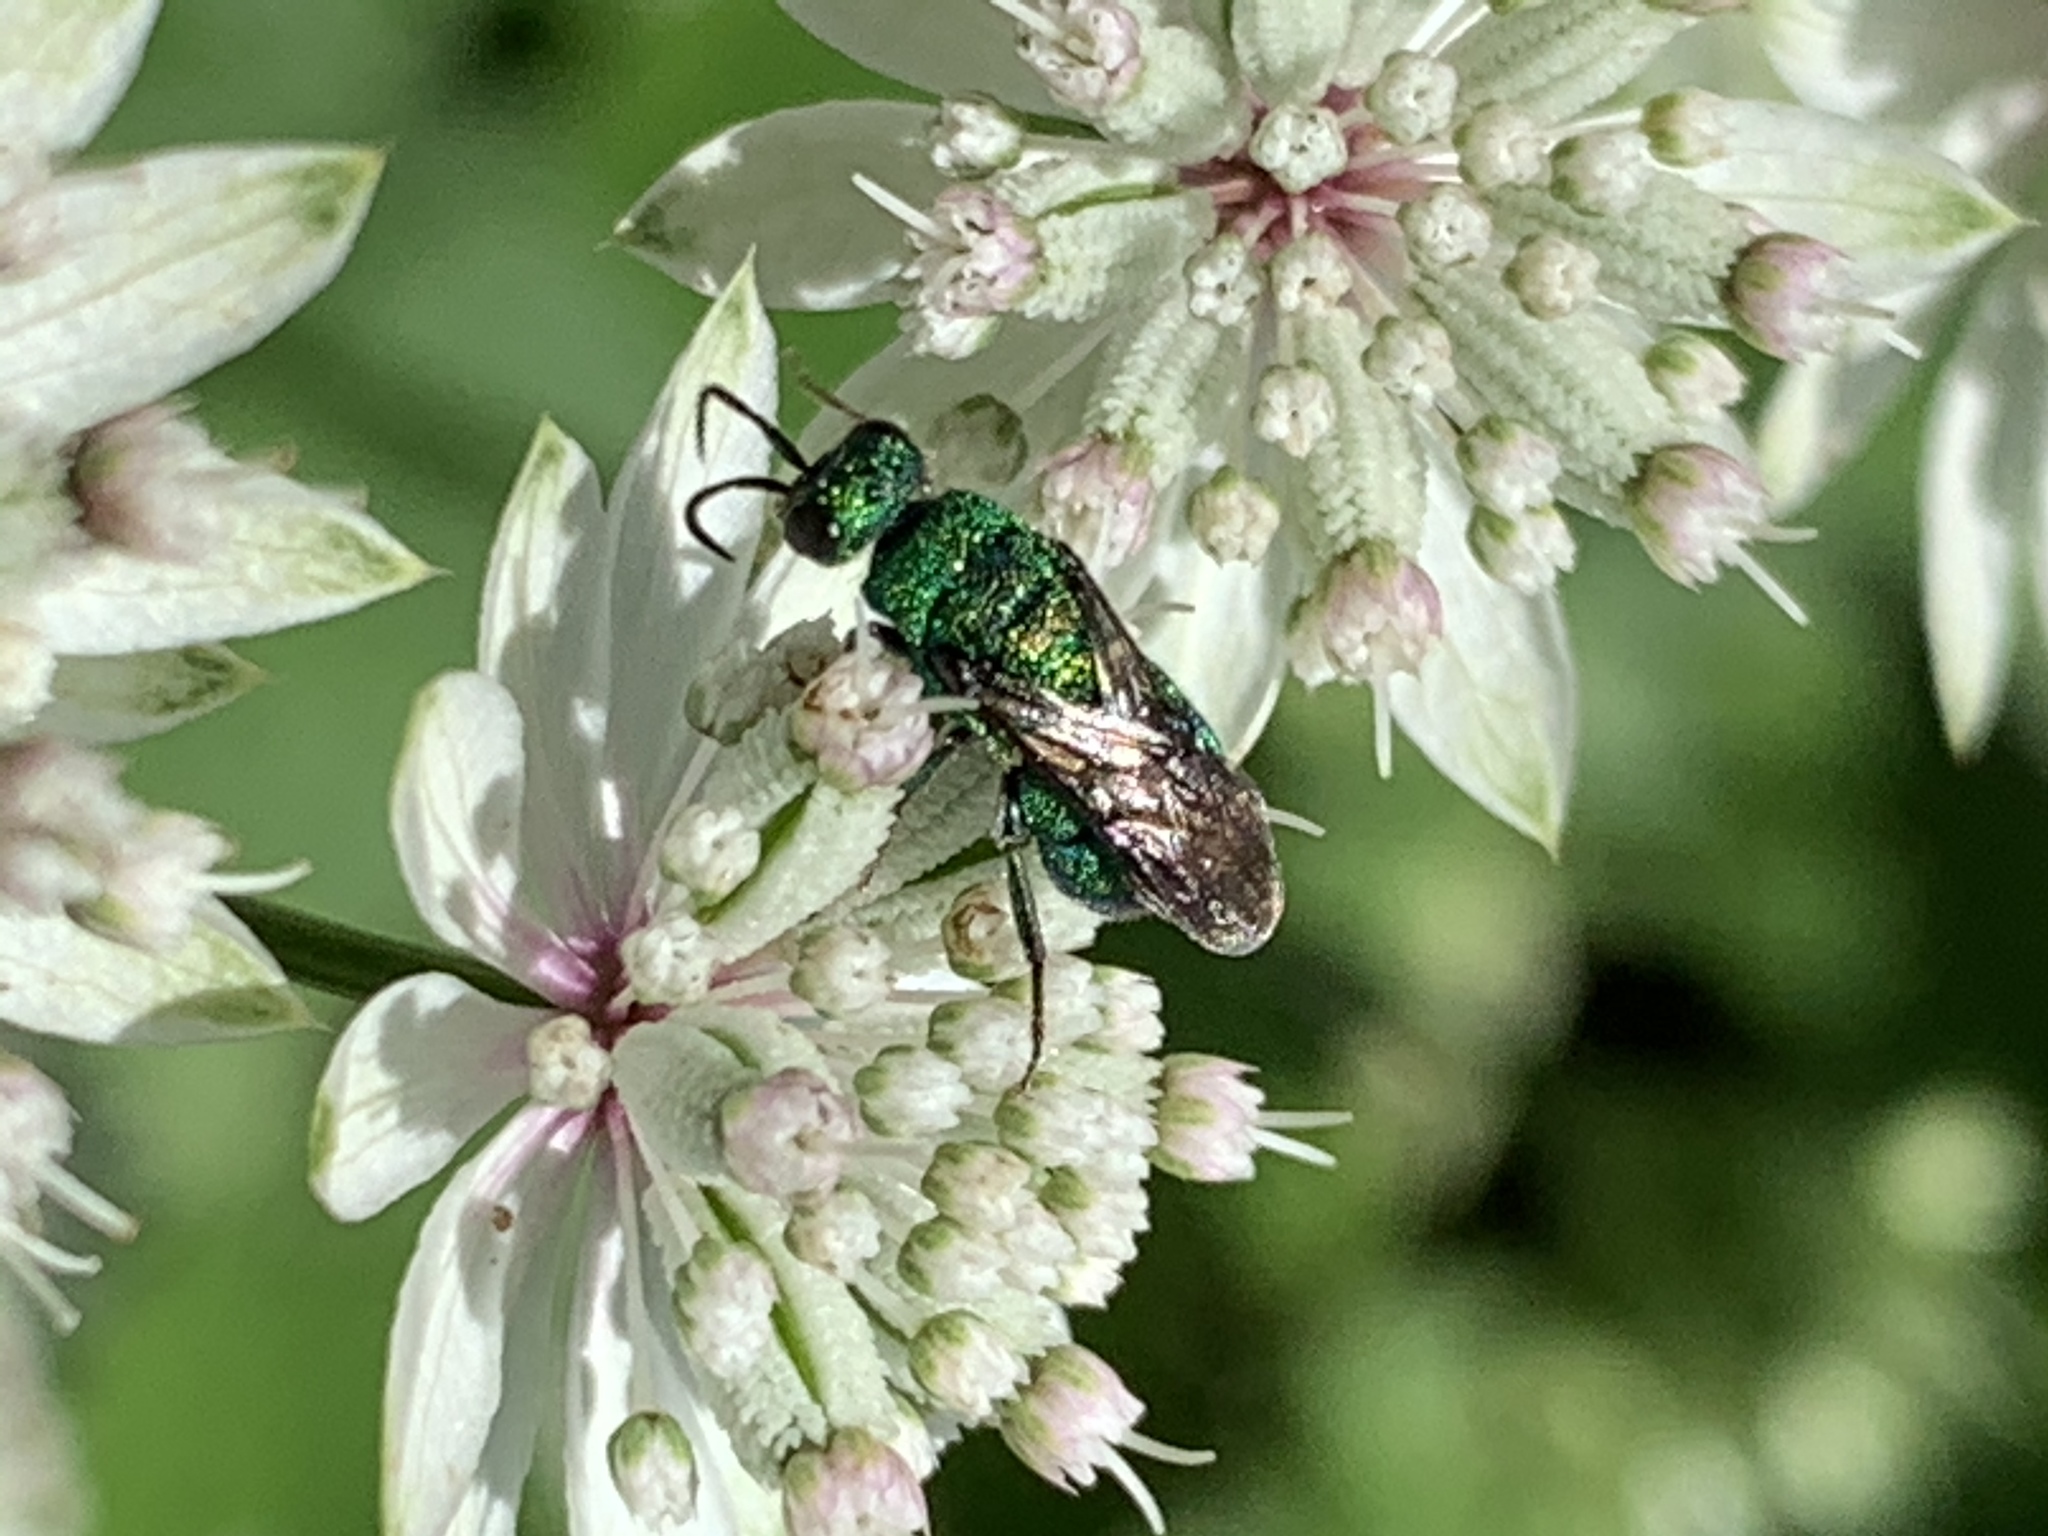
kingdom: Animalia
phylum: Arthropoda
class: Insecta
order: Hymenoptera
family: Chrysididae
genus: Hedychrum
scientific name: Hedychrum
